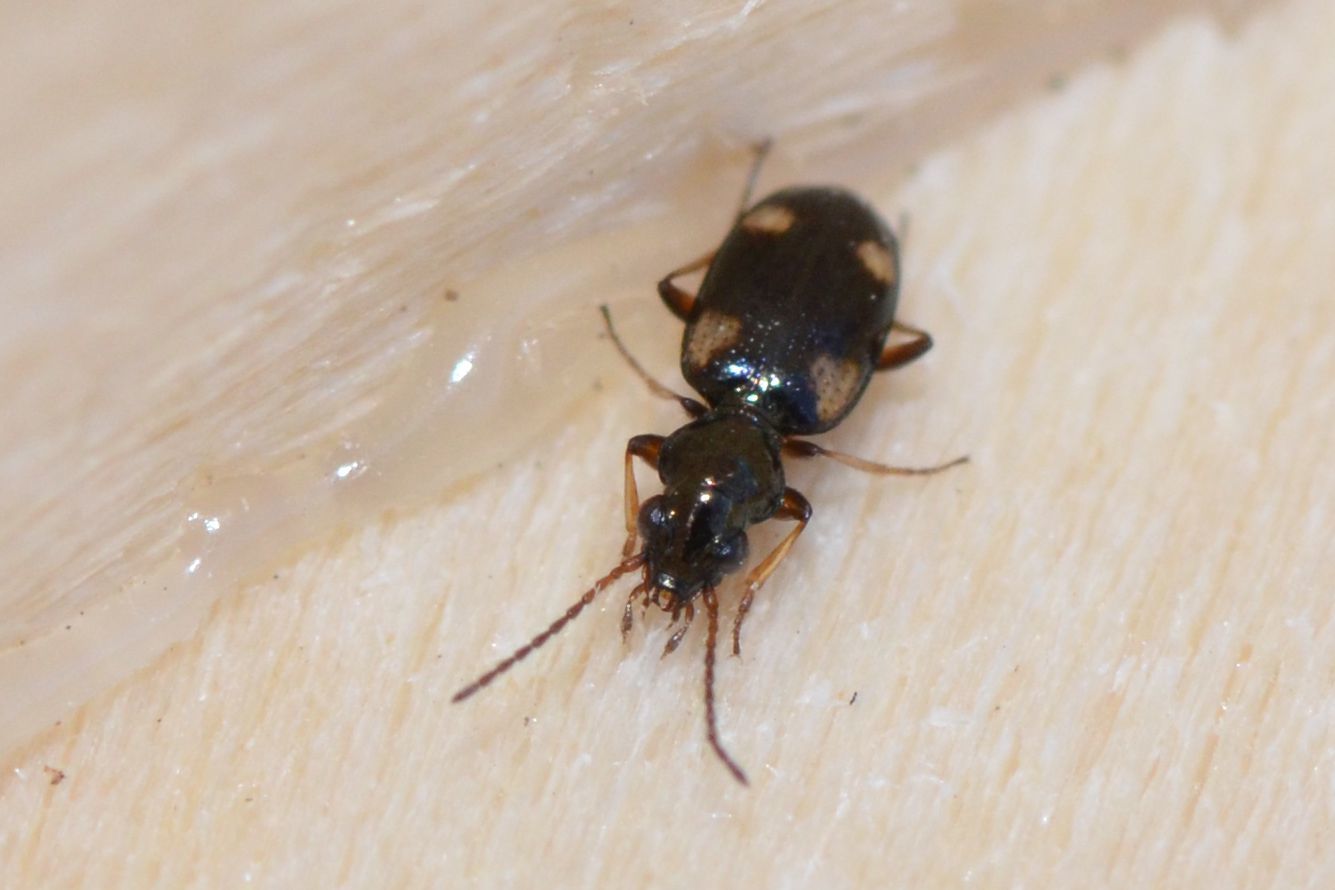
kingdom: Animalia
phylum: Arthropoda
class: Insecta
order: Coleoptera
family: Carabidae
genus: Bembidion
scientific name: Bembidion quadrimaculatum
